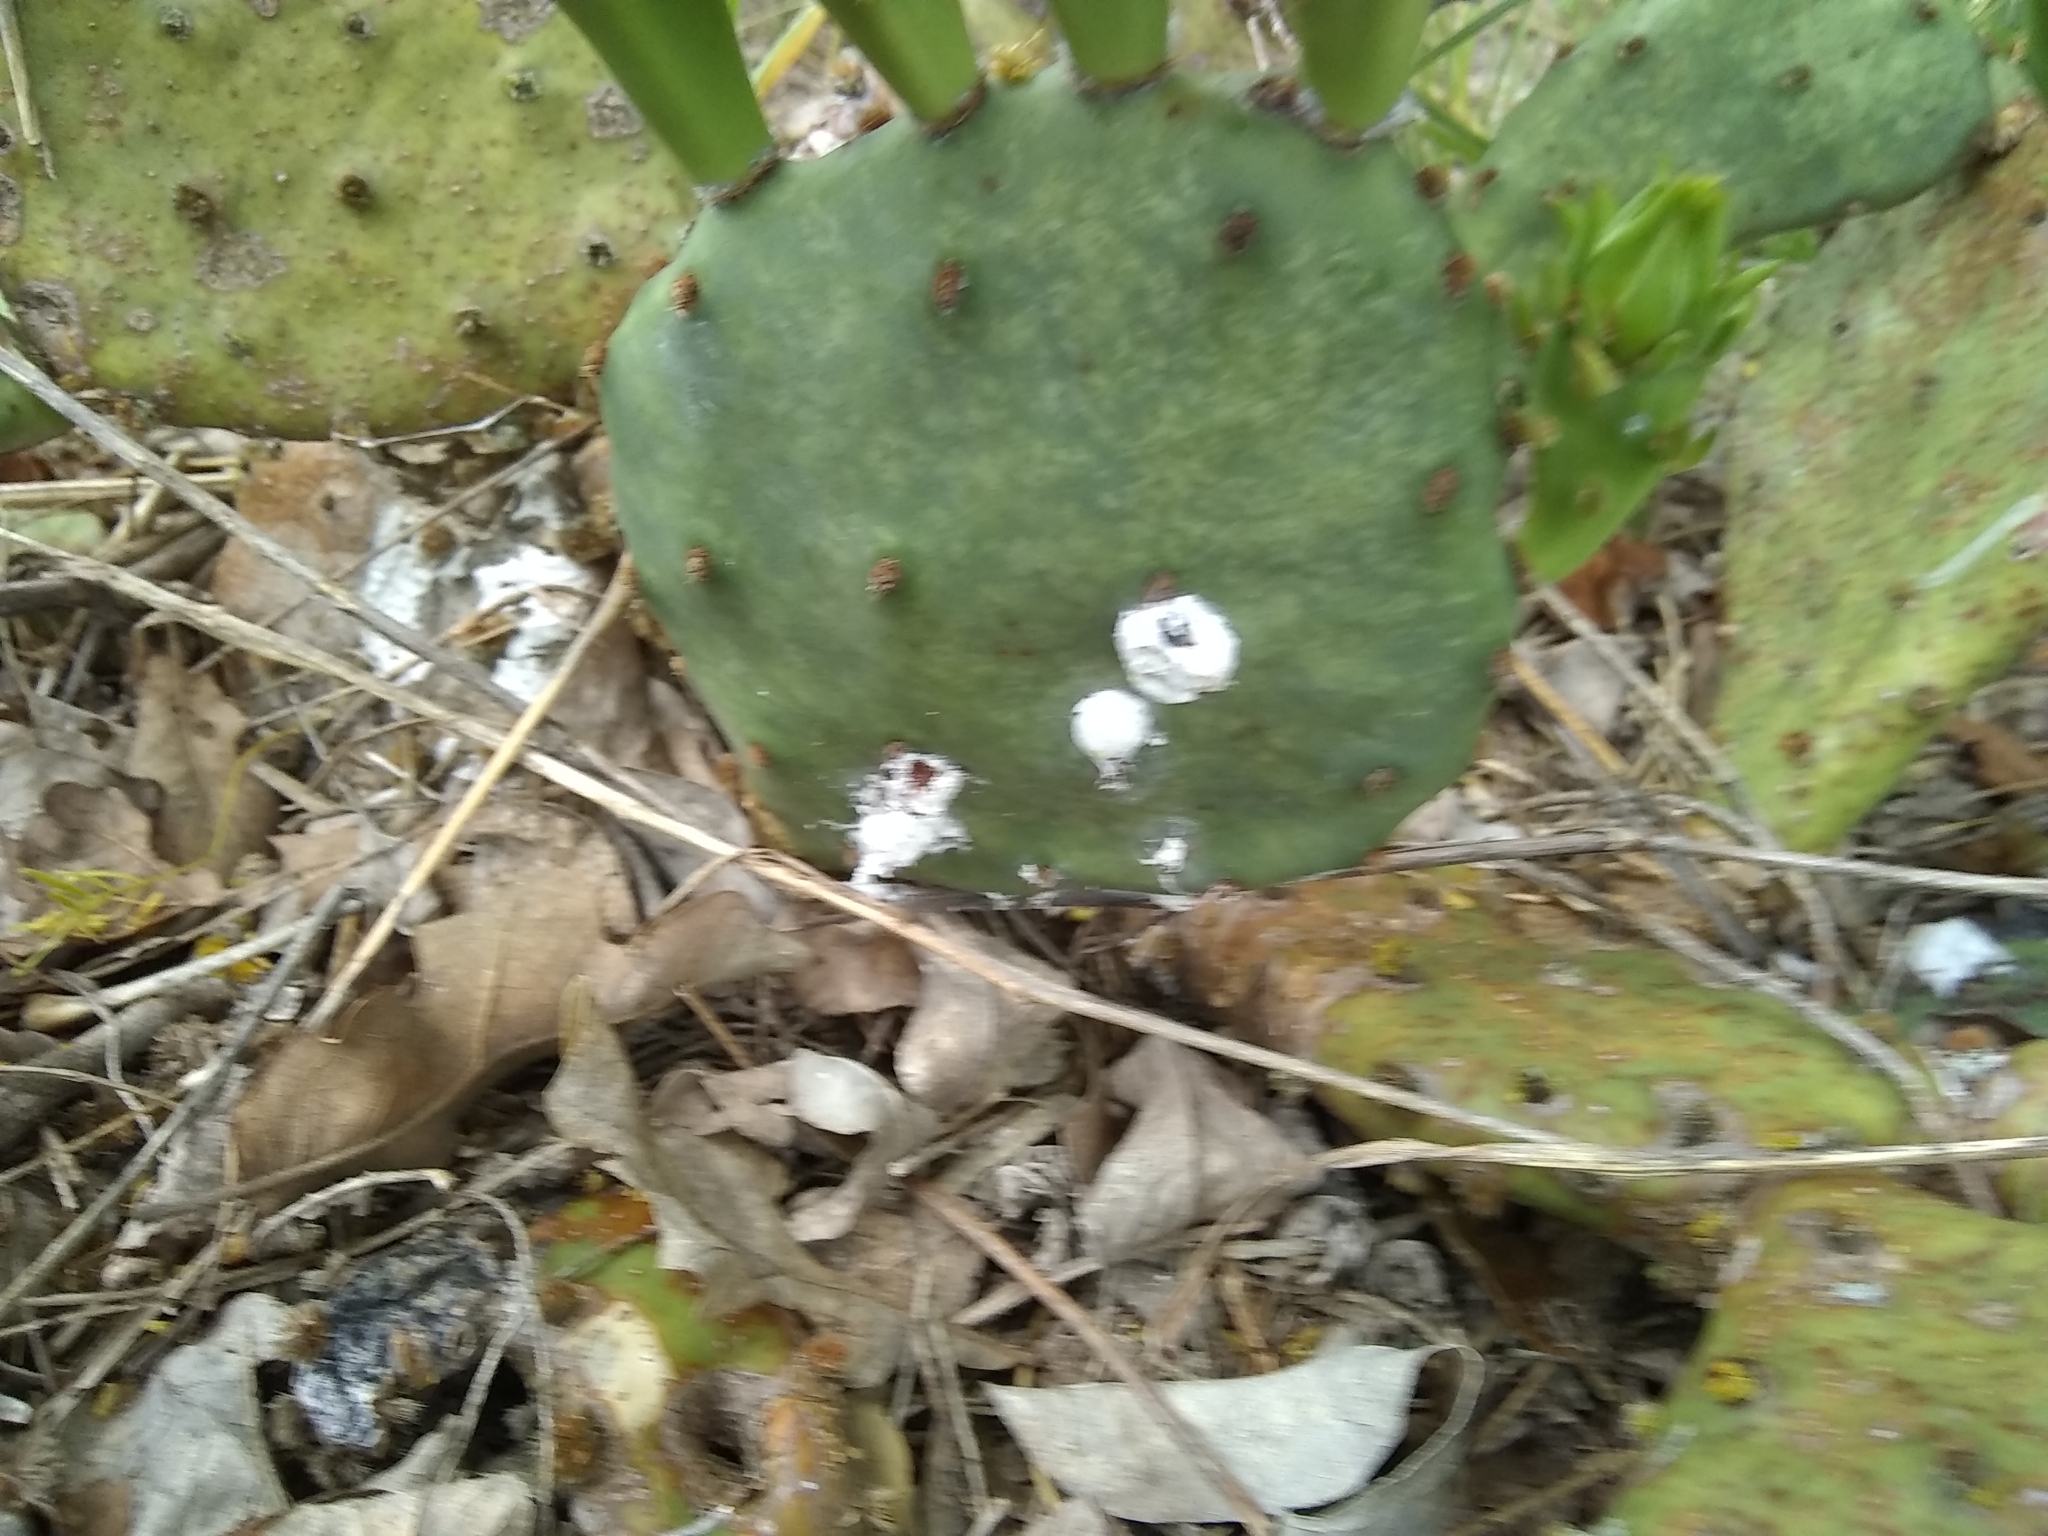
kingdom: Animalia
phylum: Arthropoda
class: Insecta
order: Hemiptera
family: Dactylopiidae
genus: Dactylopius
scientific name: Dactylopius opuntiae
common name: Opuntia cochineal scale
